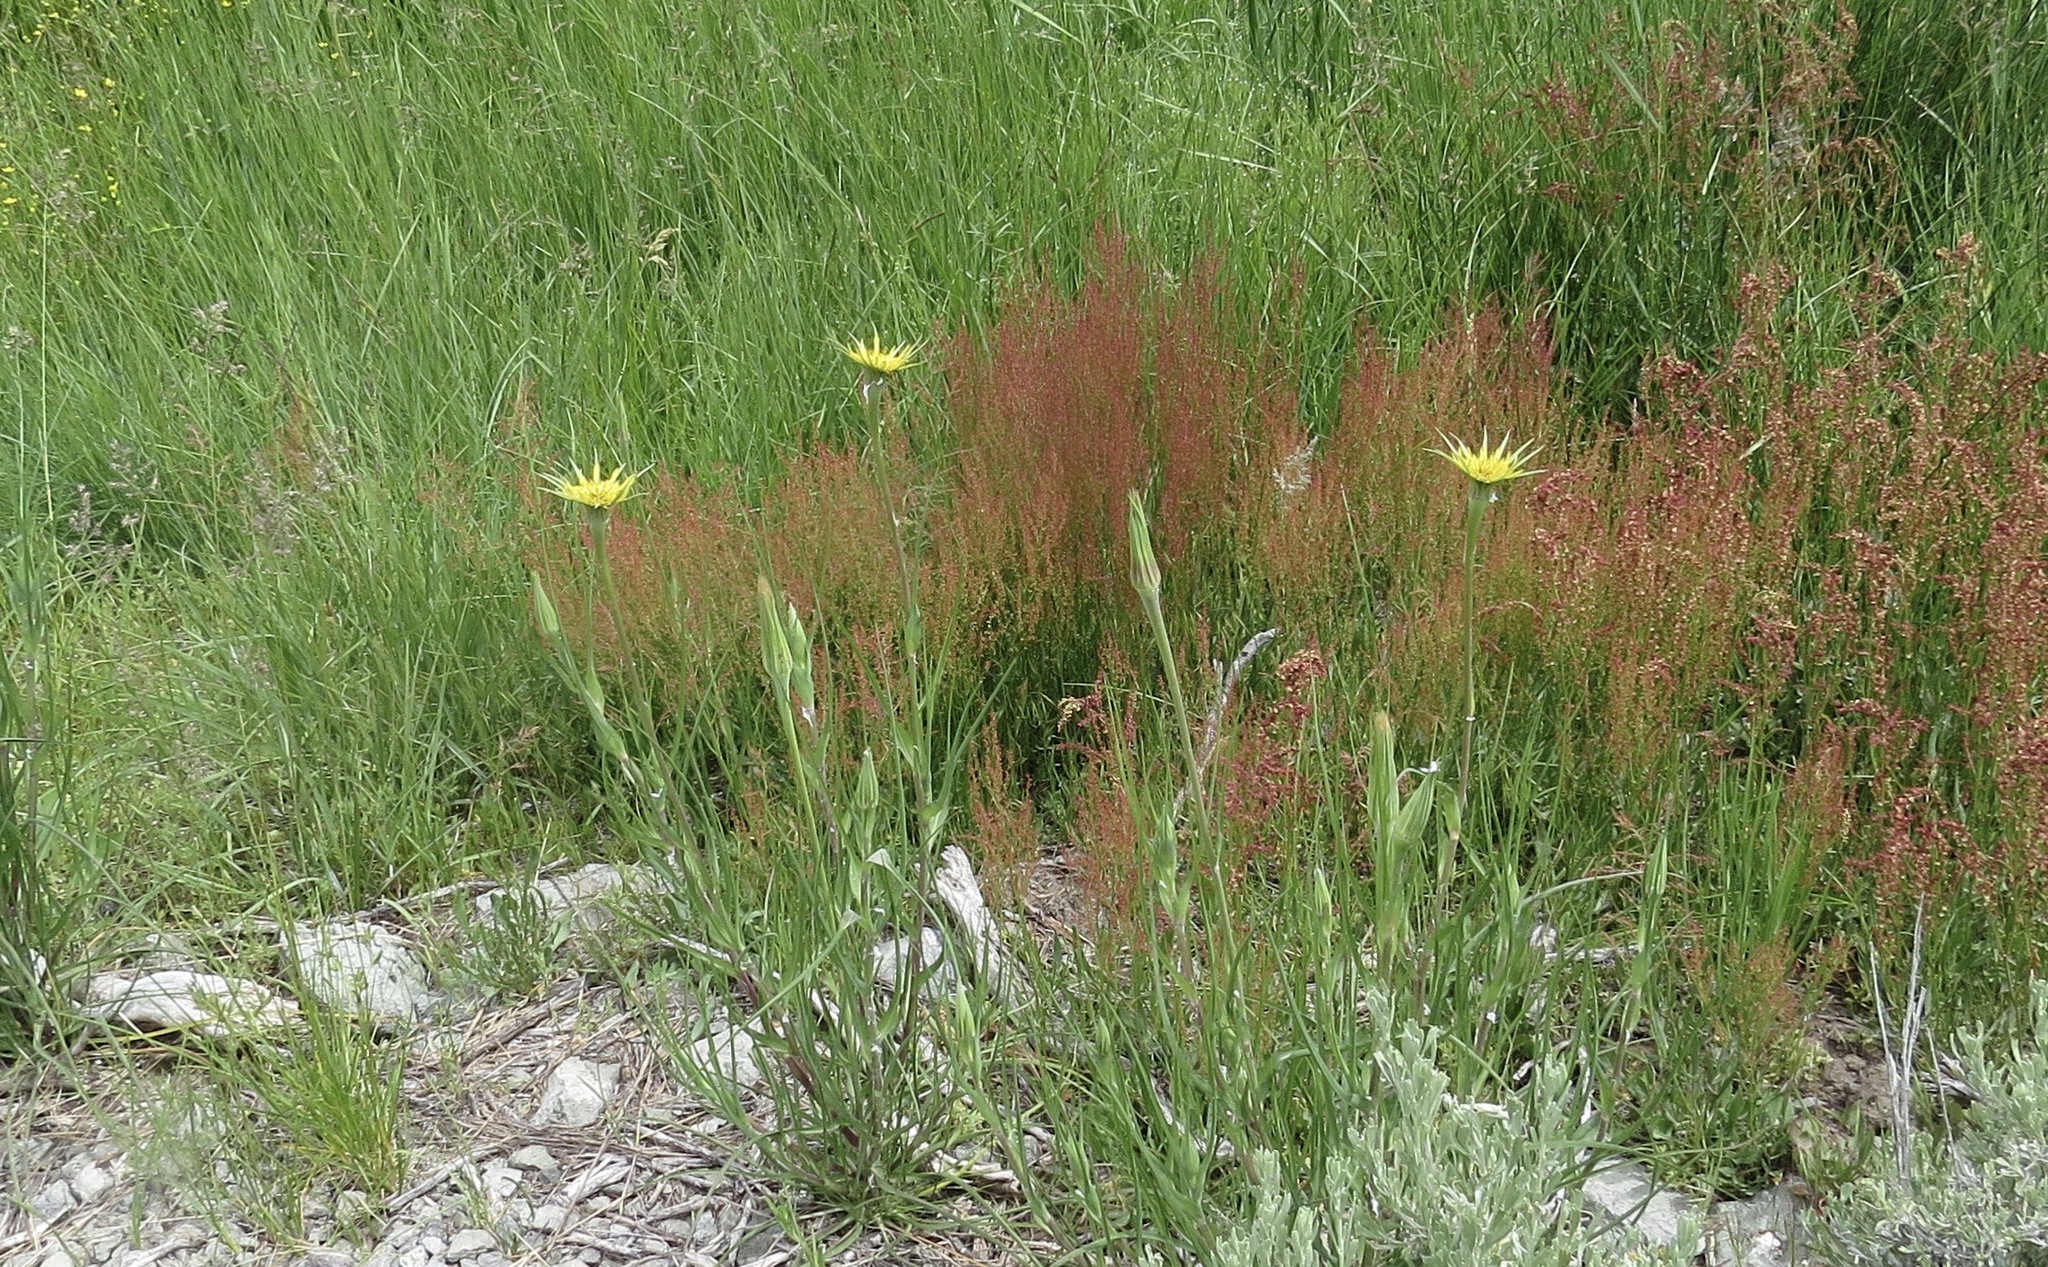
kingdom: Plantae
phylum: Tracheophyta
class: Magnoliopsida
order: Asterales
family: Asteraceae
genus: Tragopogon
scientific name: Tragopogon dubius
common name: Yellow salsify
